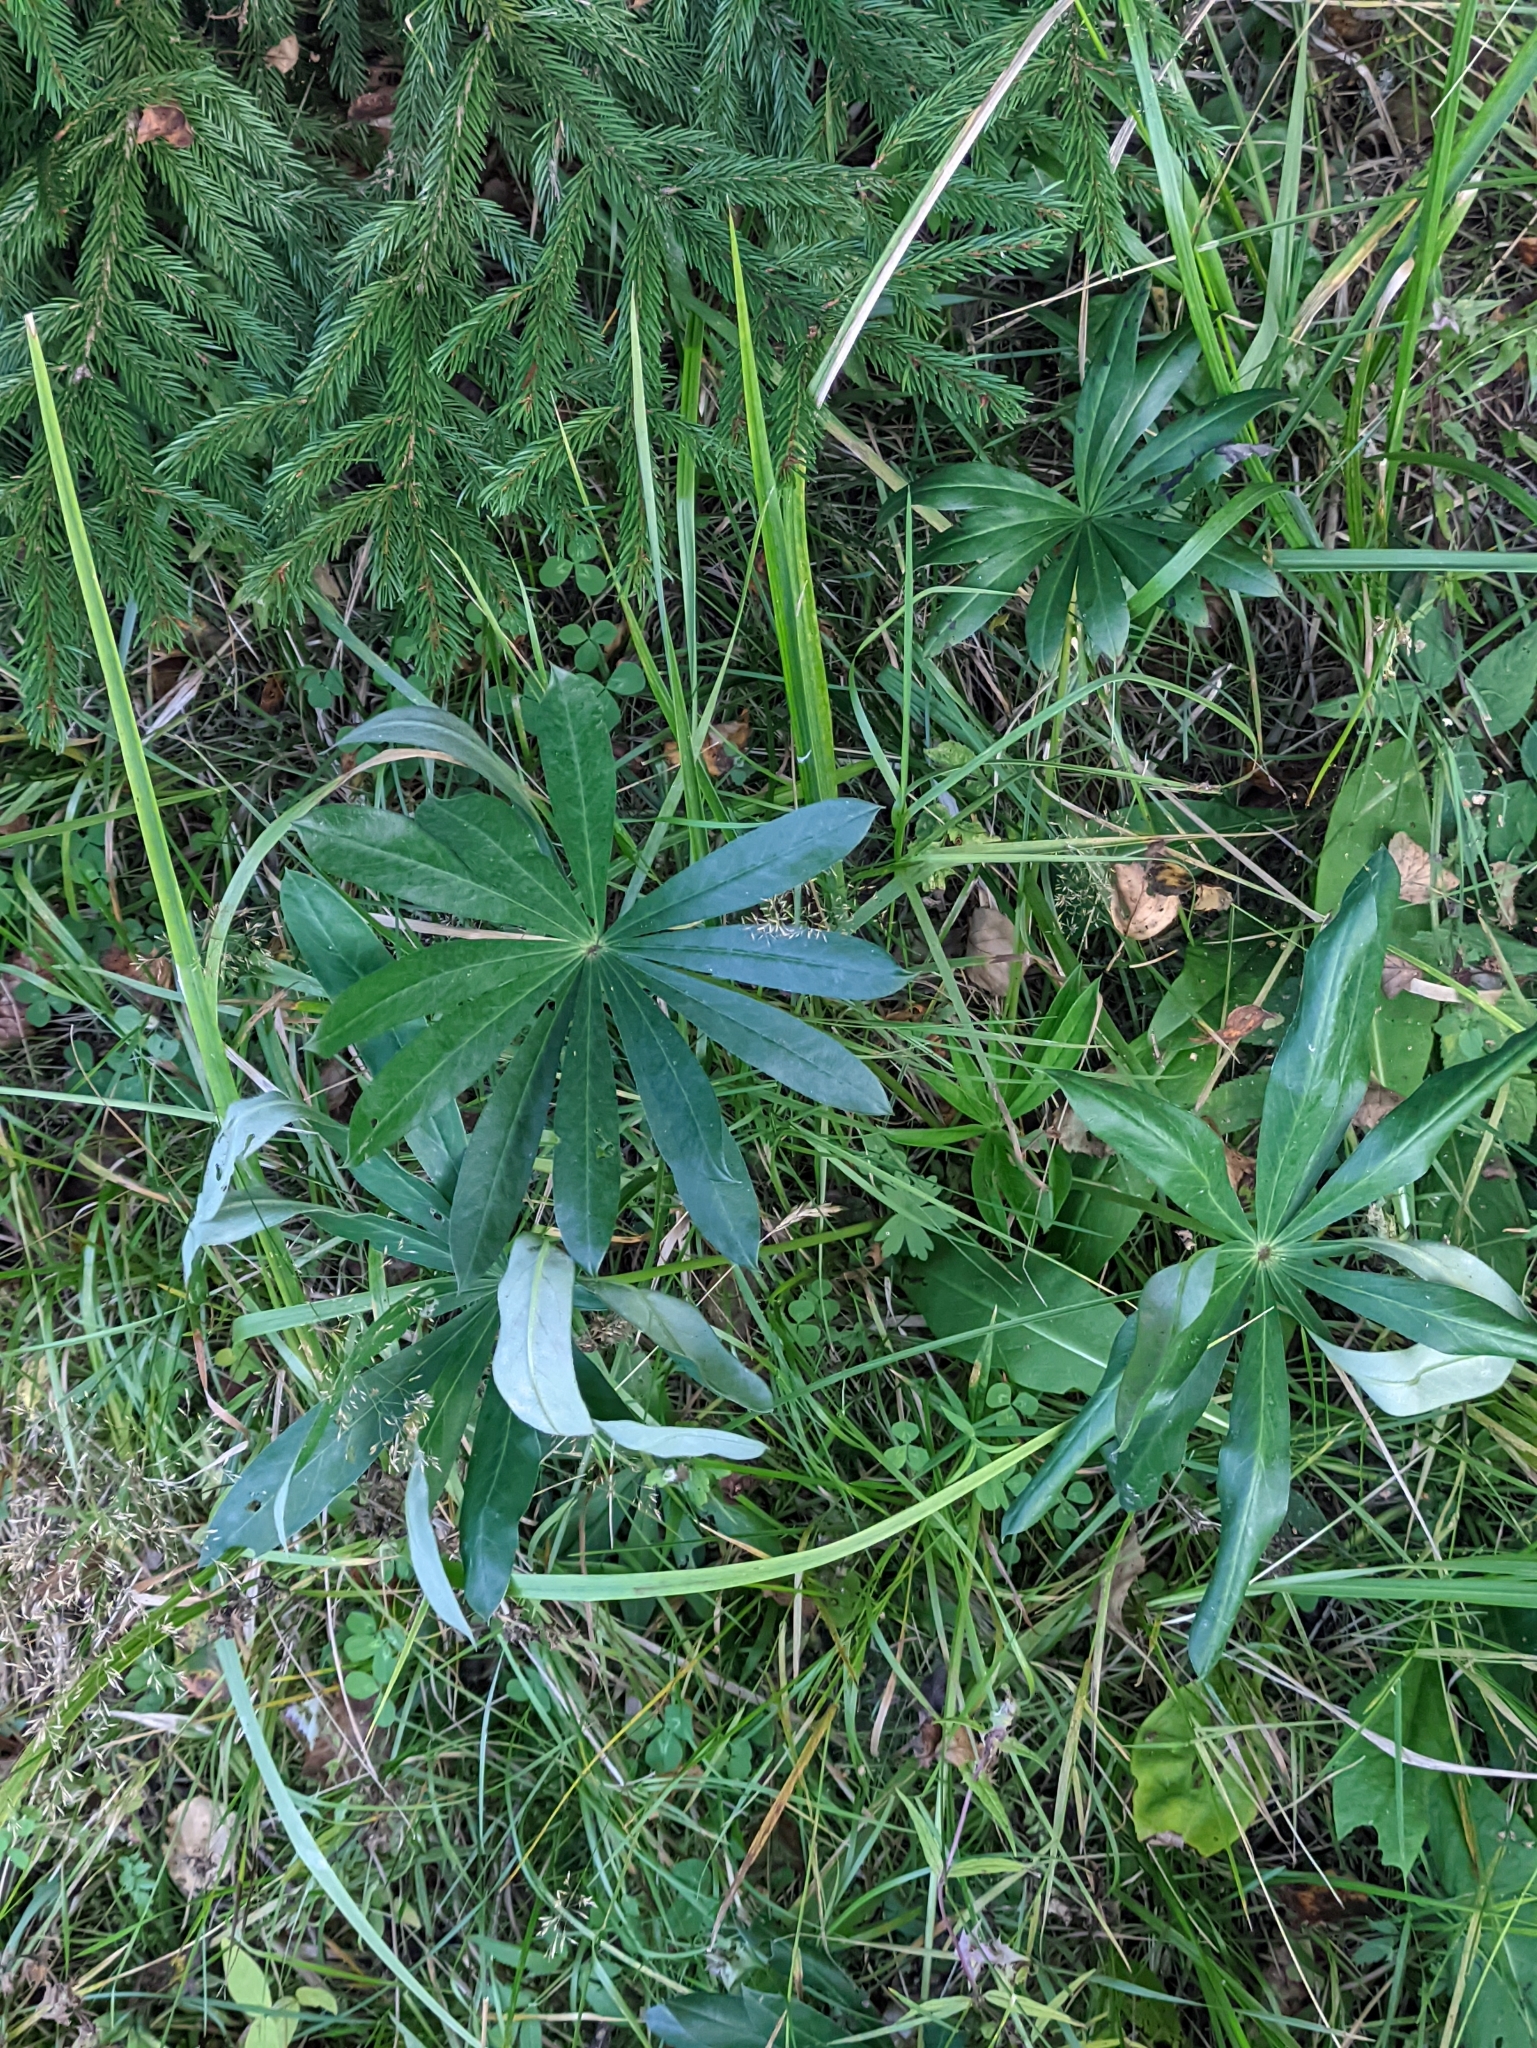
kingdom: Plantae
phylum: Tracheophyta
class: Magnoliopsida
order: Fabales
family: Fabaceae
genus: Lupinus
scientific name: Lupinus polyphyllus
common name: Garden lupin
